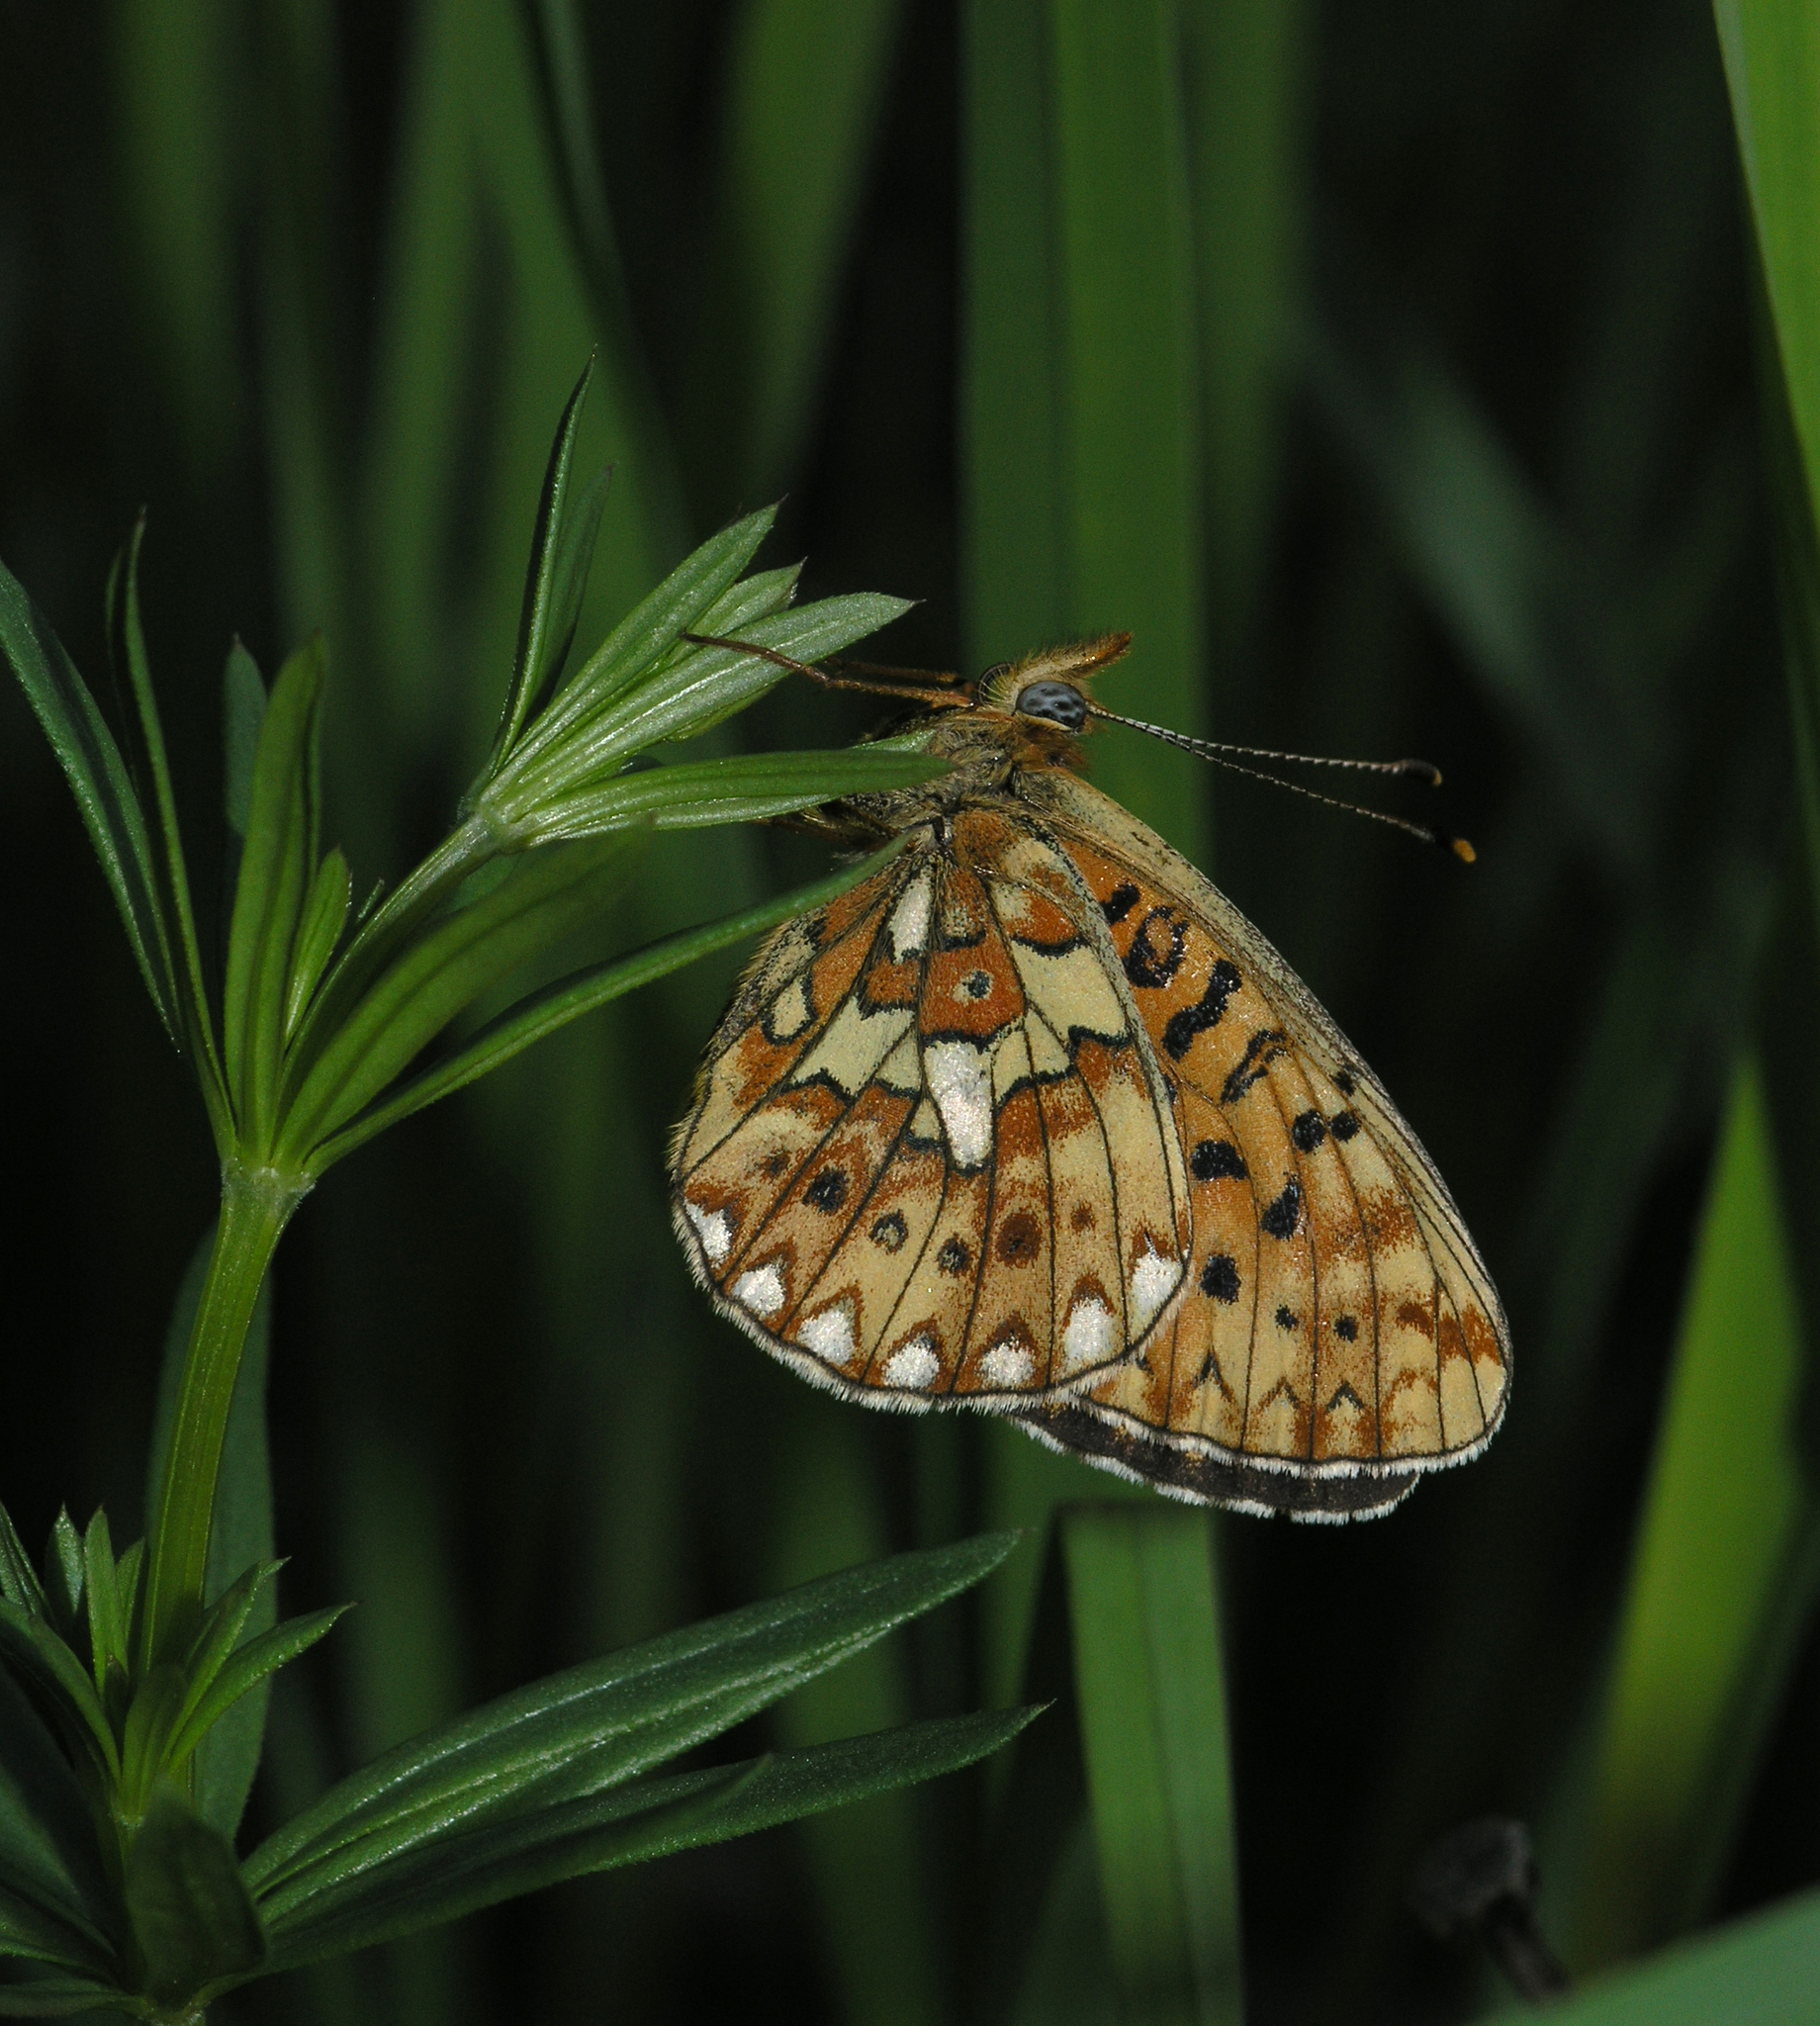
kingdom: Animalia
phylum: Arthropoda
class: Insecta
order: Lepidoptera
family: Nymphalidae
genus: Clossiana
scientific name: Clossiana euphrosyne
